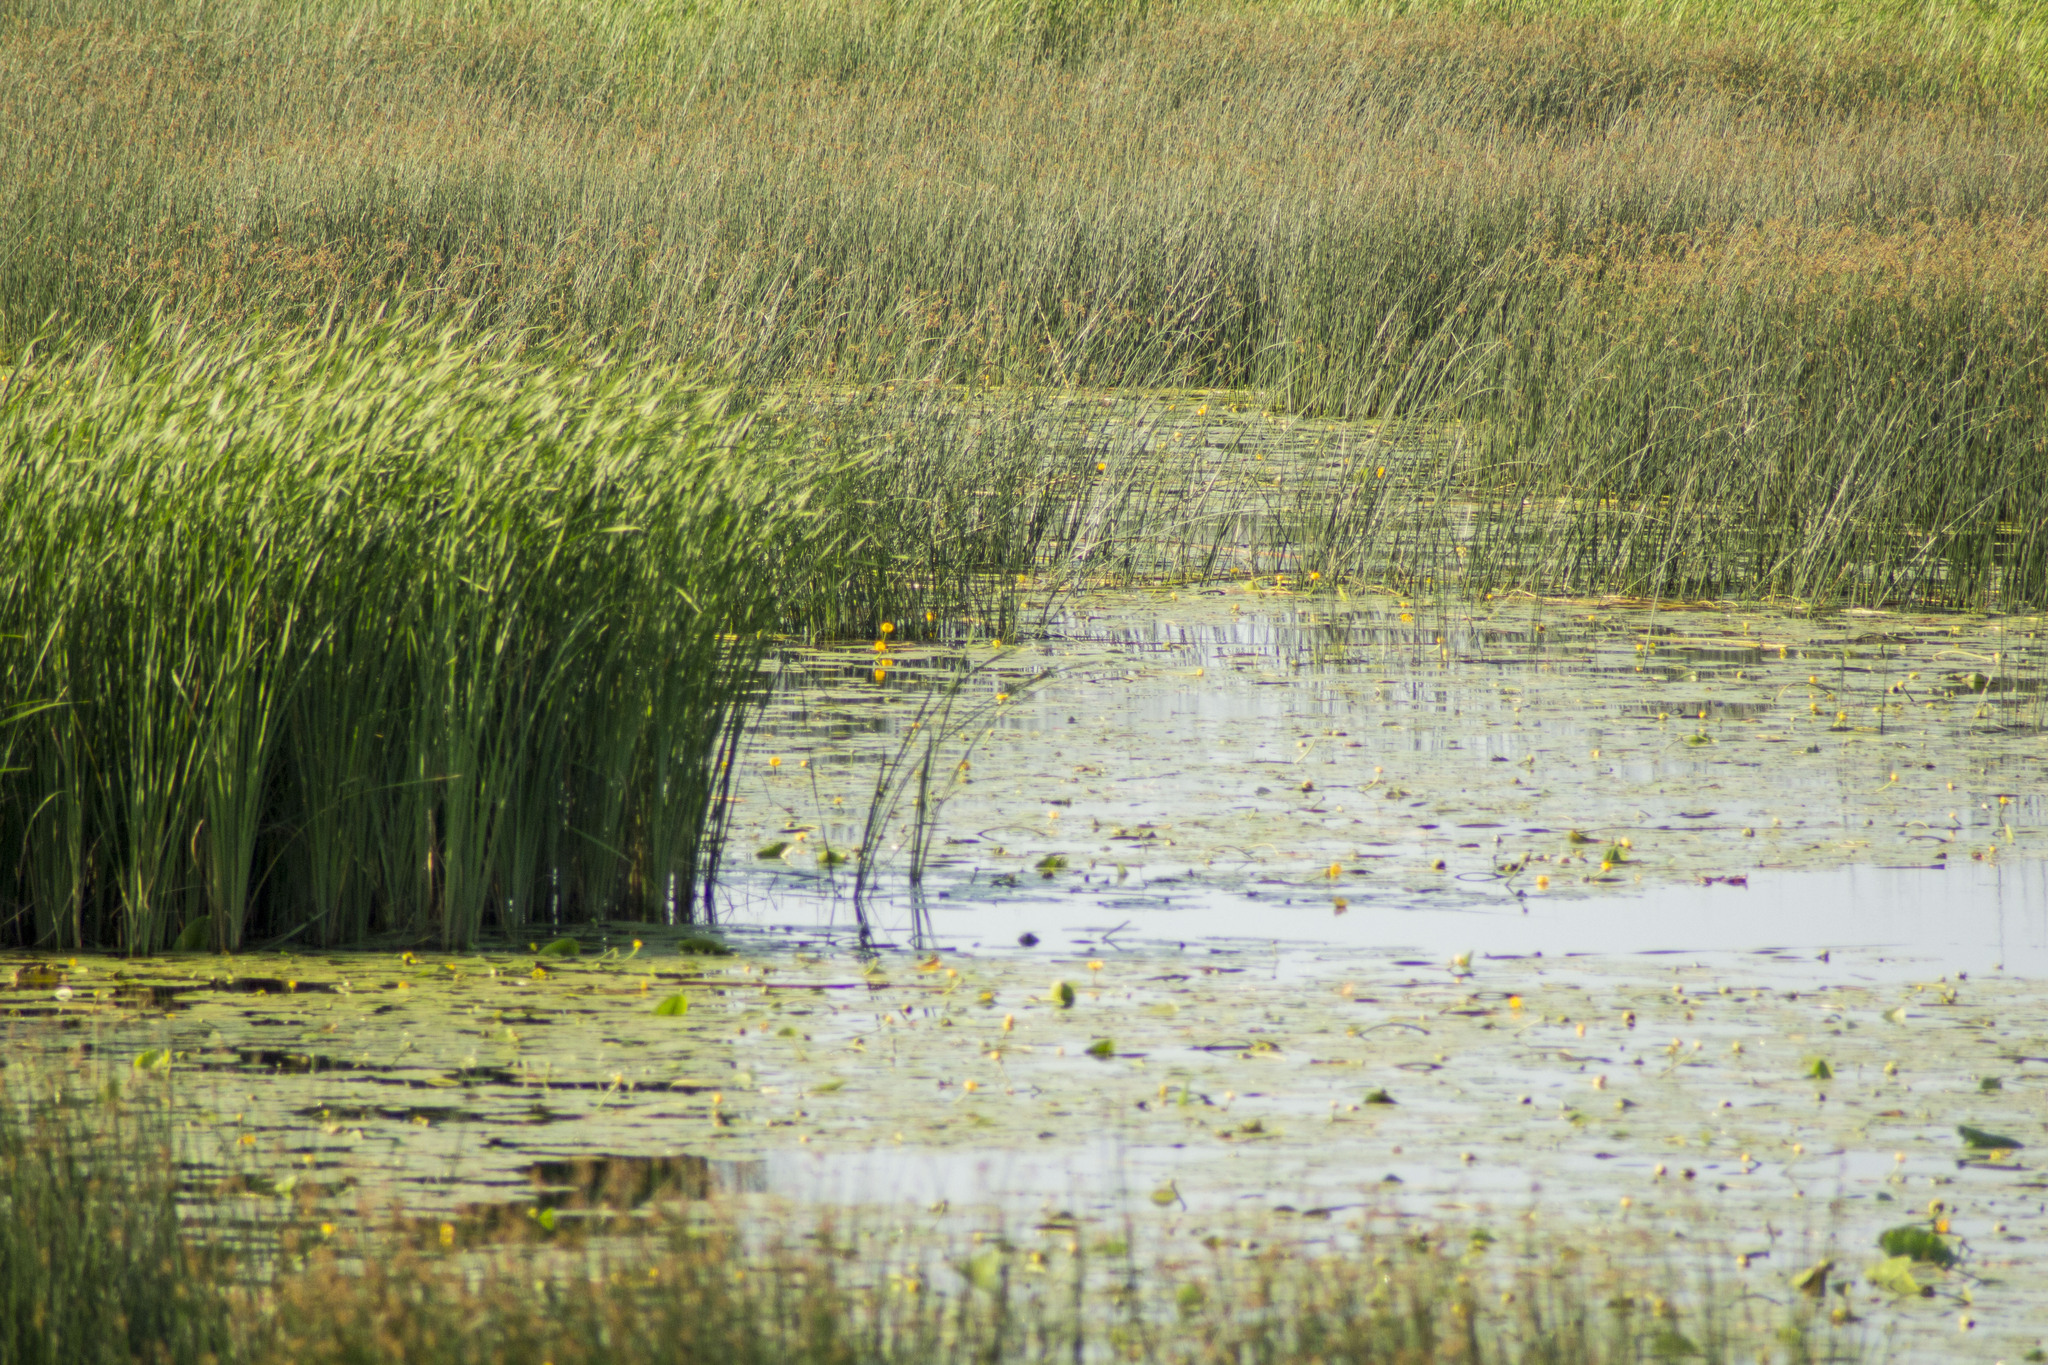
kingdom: Plantae
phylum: Tracheophyta
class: Magnoliopsida
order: Nymphaeales
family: Nymphaeaceae
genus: Nuphar
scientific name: Nuphar lutea
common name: Yellow water-lily
